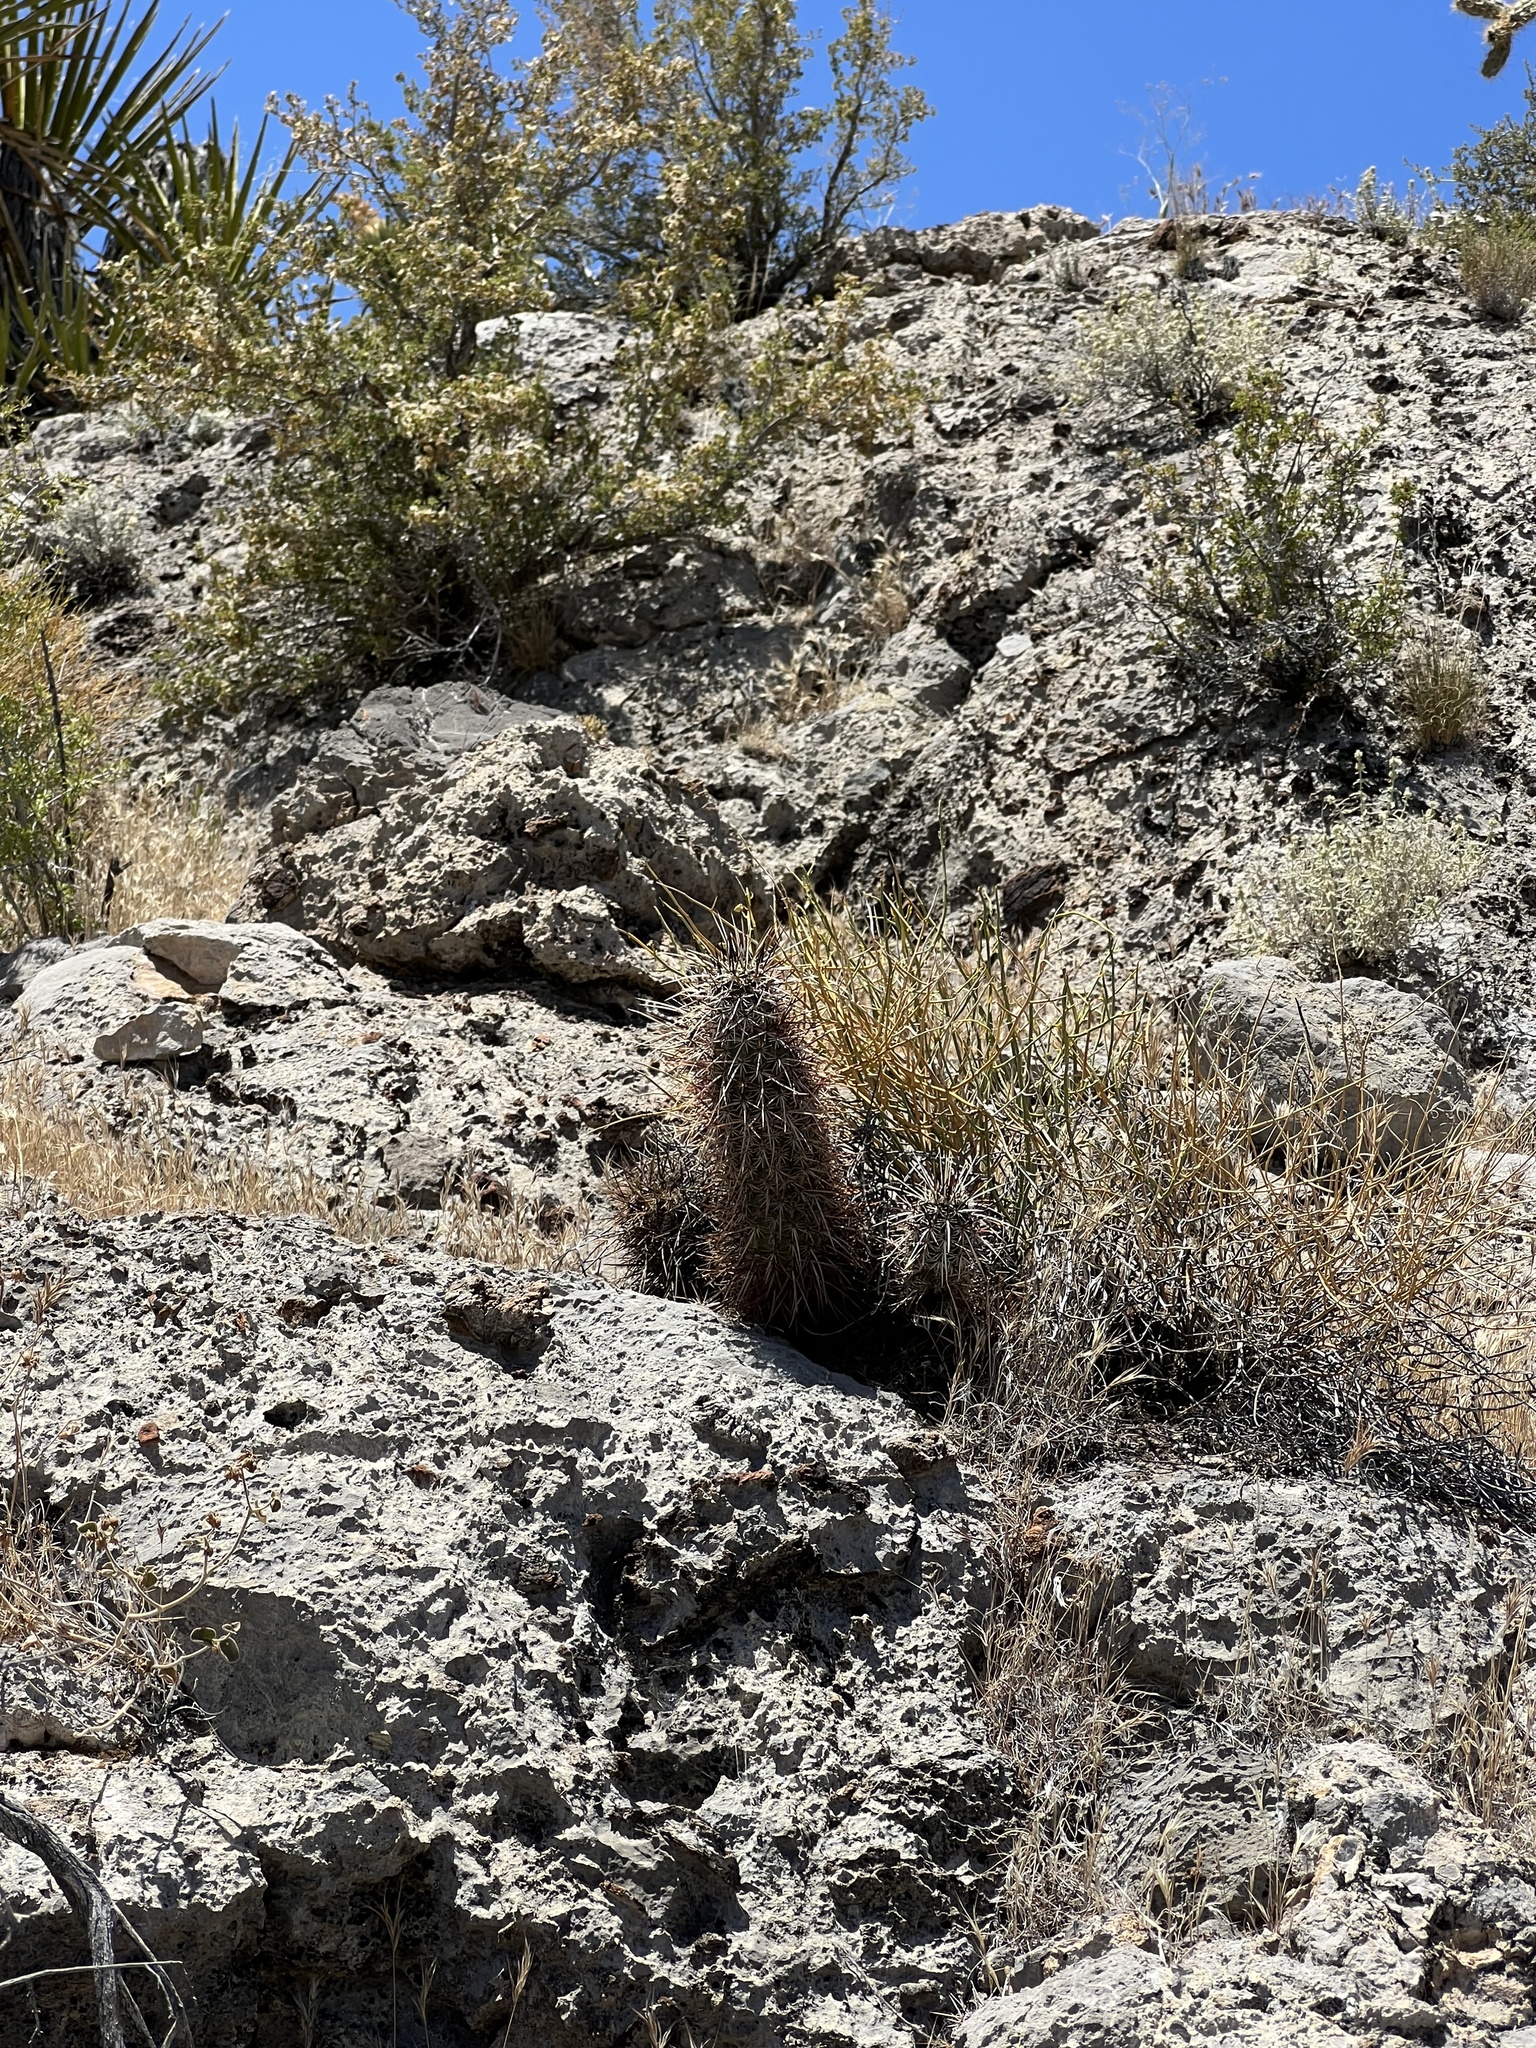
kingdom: Plantae
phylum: Tracheophyta
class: Magnoliopsida
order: Caryophyllales
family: Cactaceae
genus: Echinocereus
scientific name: Echinocereus engelmannii
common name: Engelmann's hedgehog cactus
